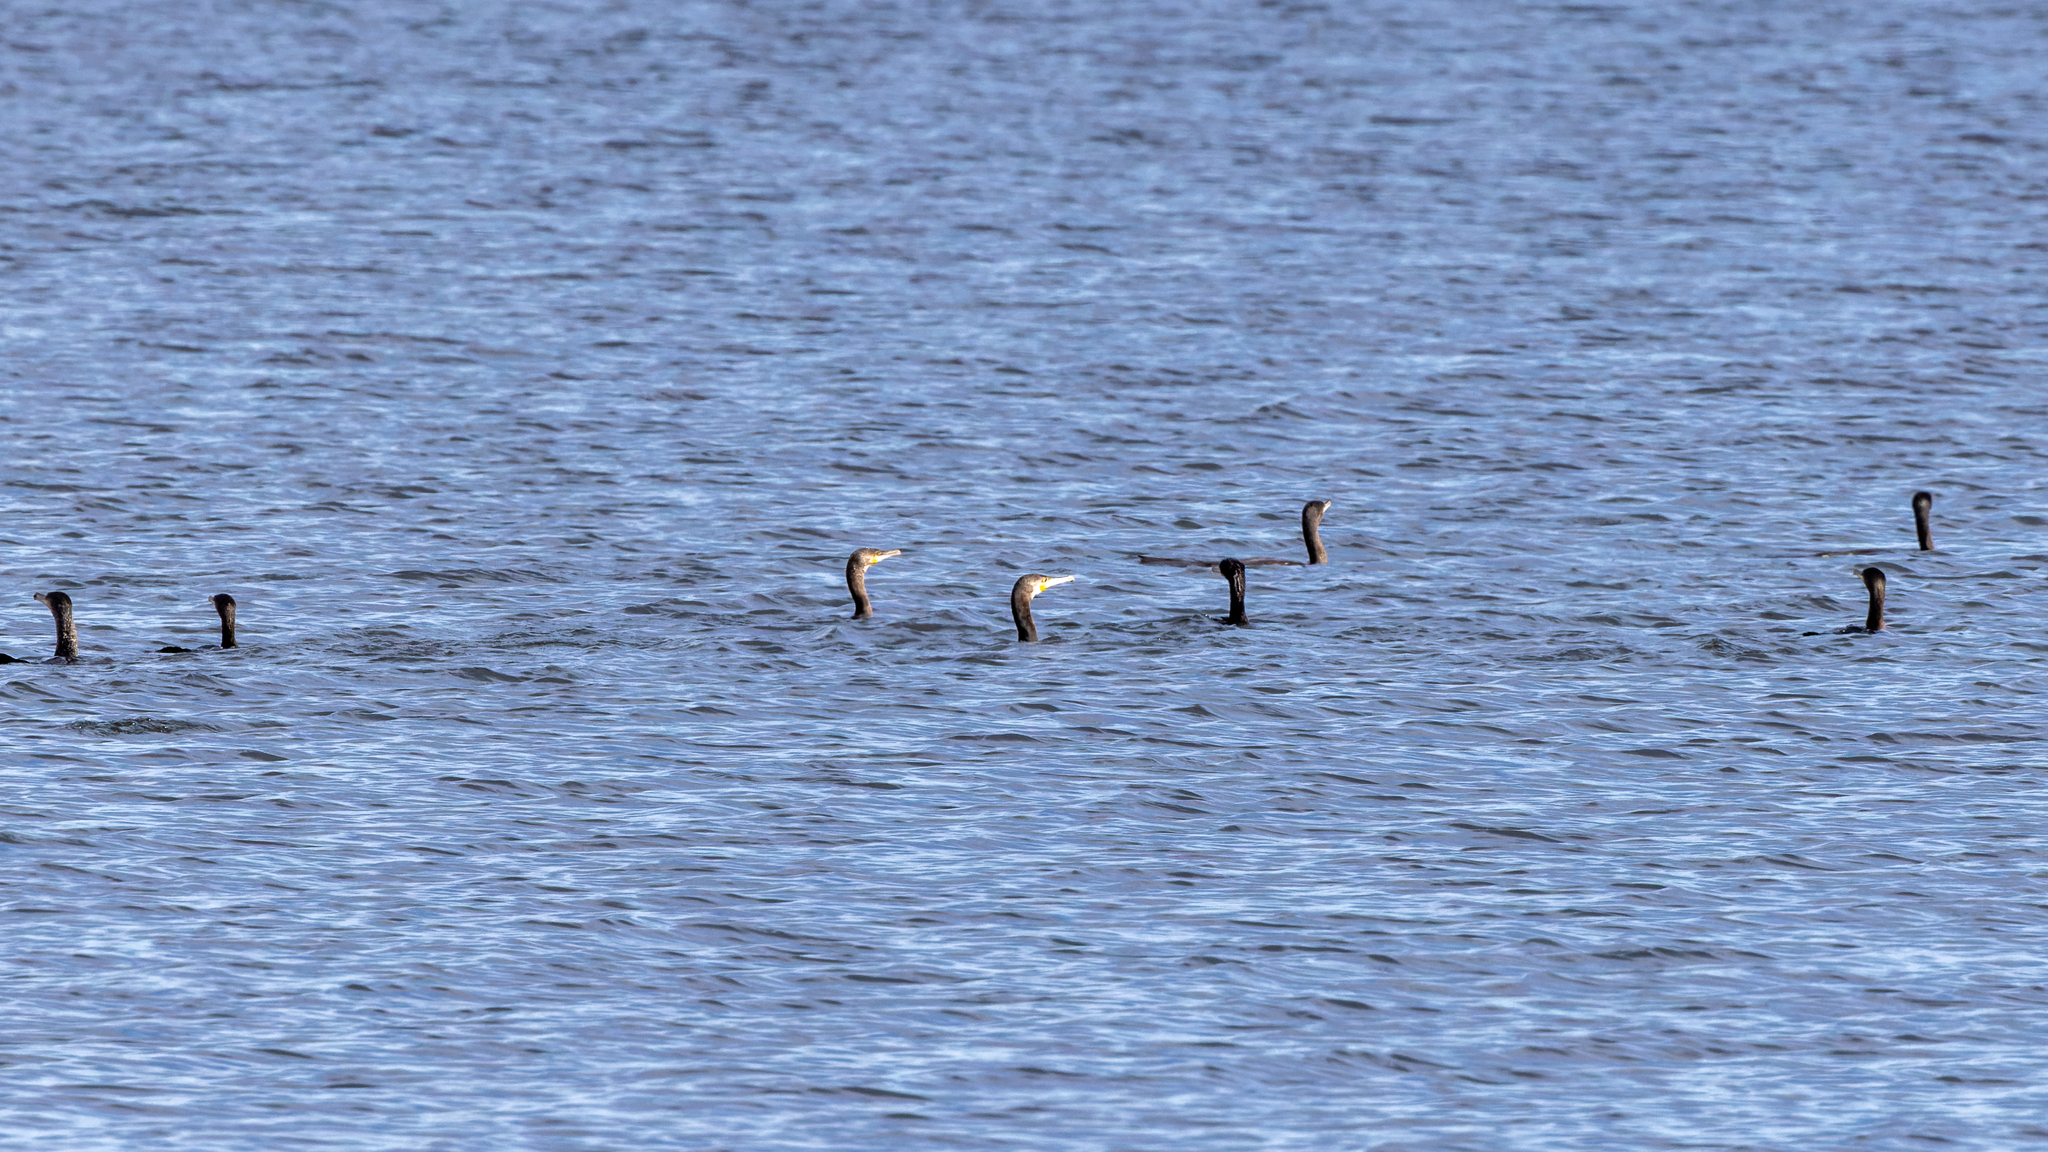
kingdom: Animalia
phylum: Chordata
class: Aves
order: Suliformes
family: Phalacrocoracidae
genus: Phalacrocorax
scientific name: Phalacrocorax carbo
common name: Great cormorant
